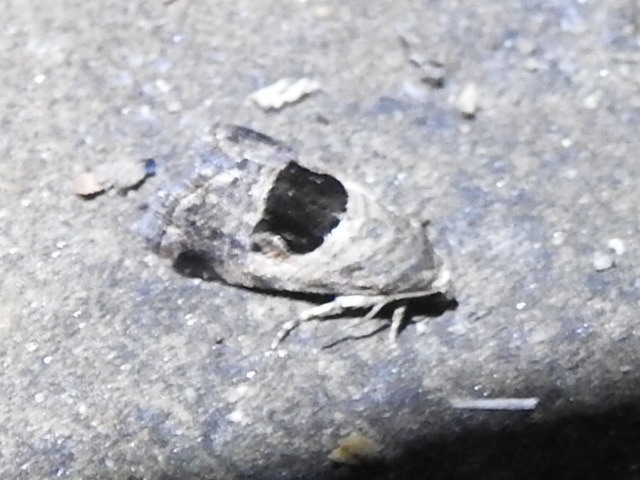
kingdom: Animalia
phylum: Arthropoda
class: Insecta
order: Lepidoptera
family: Noctuidae
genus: Tripudia
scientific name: Tripudia quadrifera
